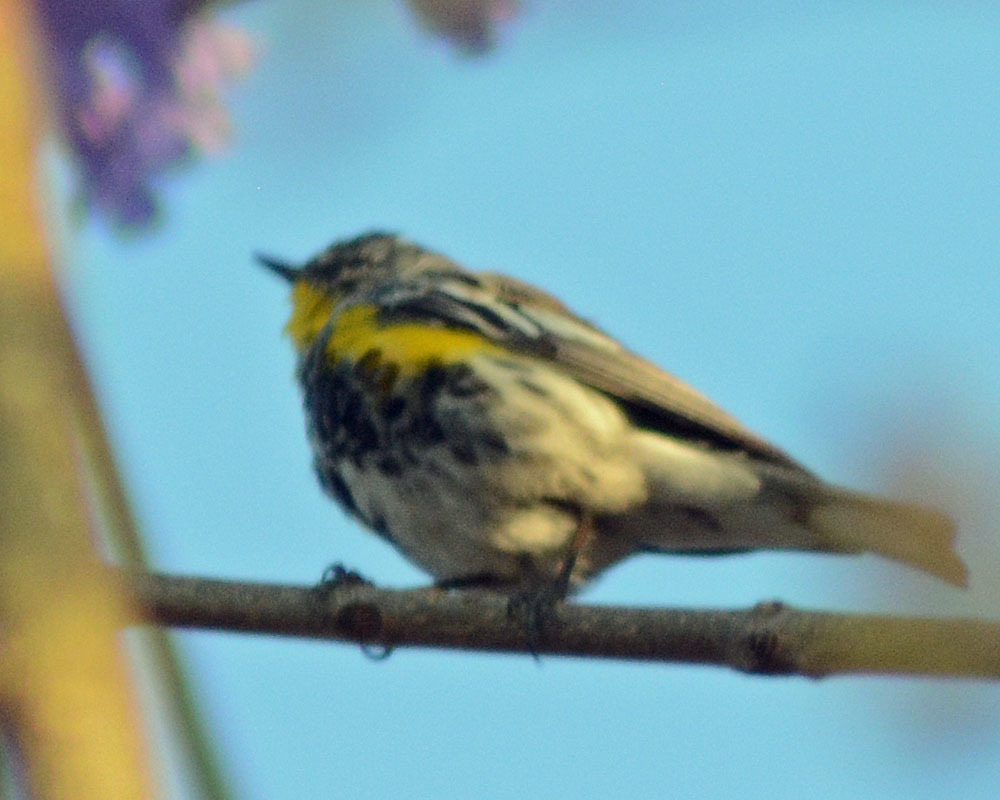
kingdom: Animalia
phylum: Chordata
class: Aves
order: Passeriformes
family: Parulidae
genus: Setophaga
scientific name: Setophaga auduboni
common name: Audubon's warbler
